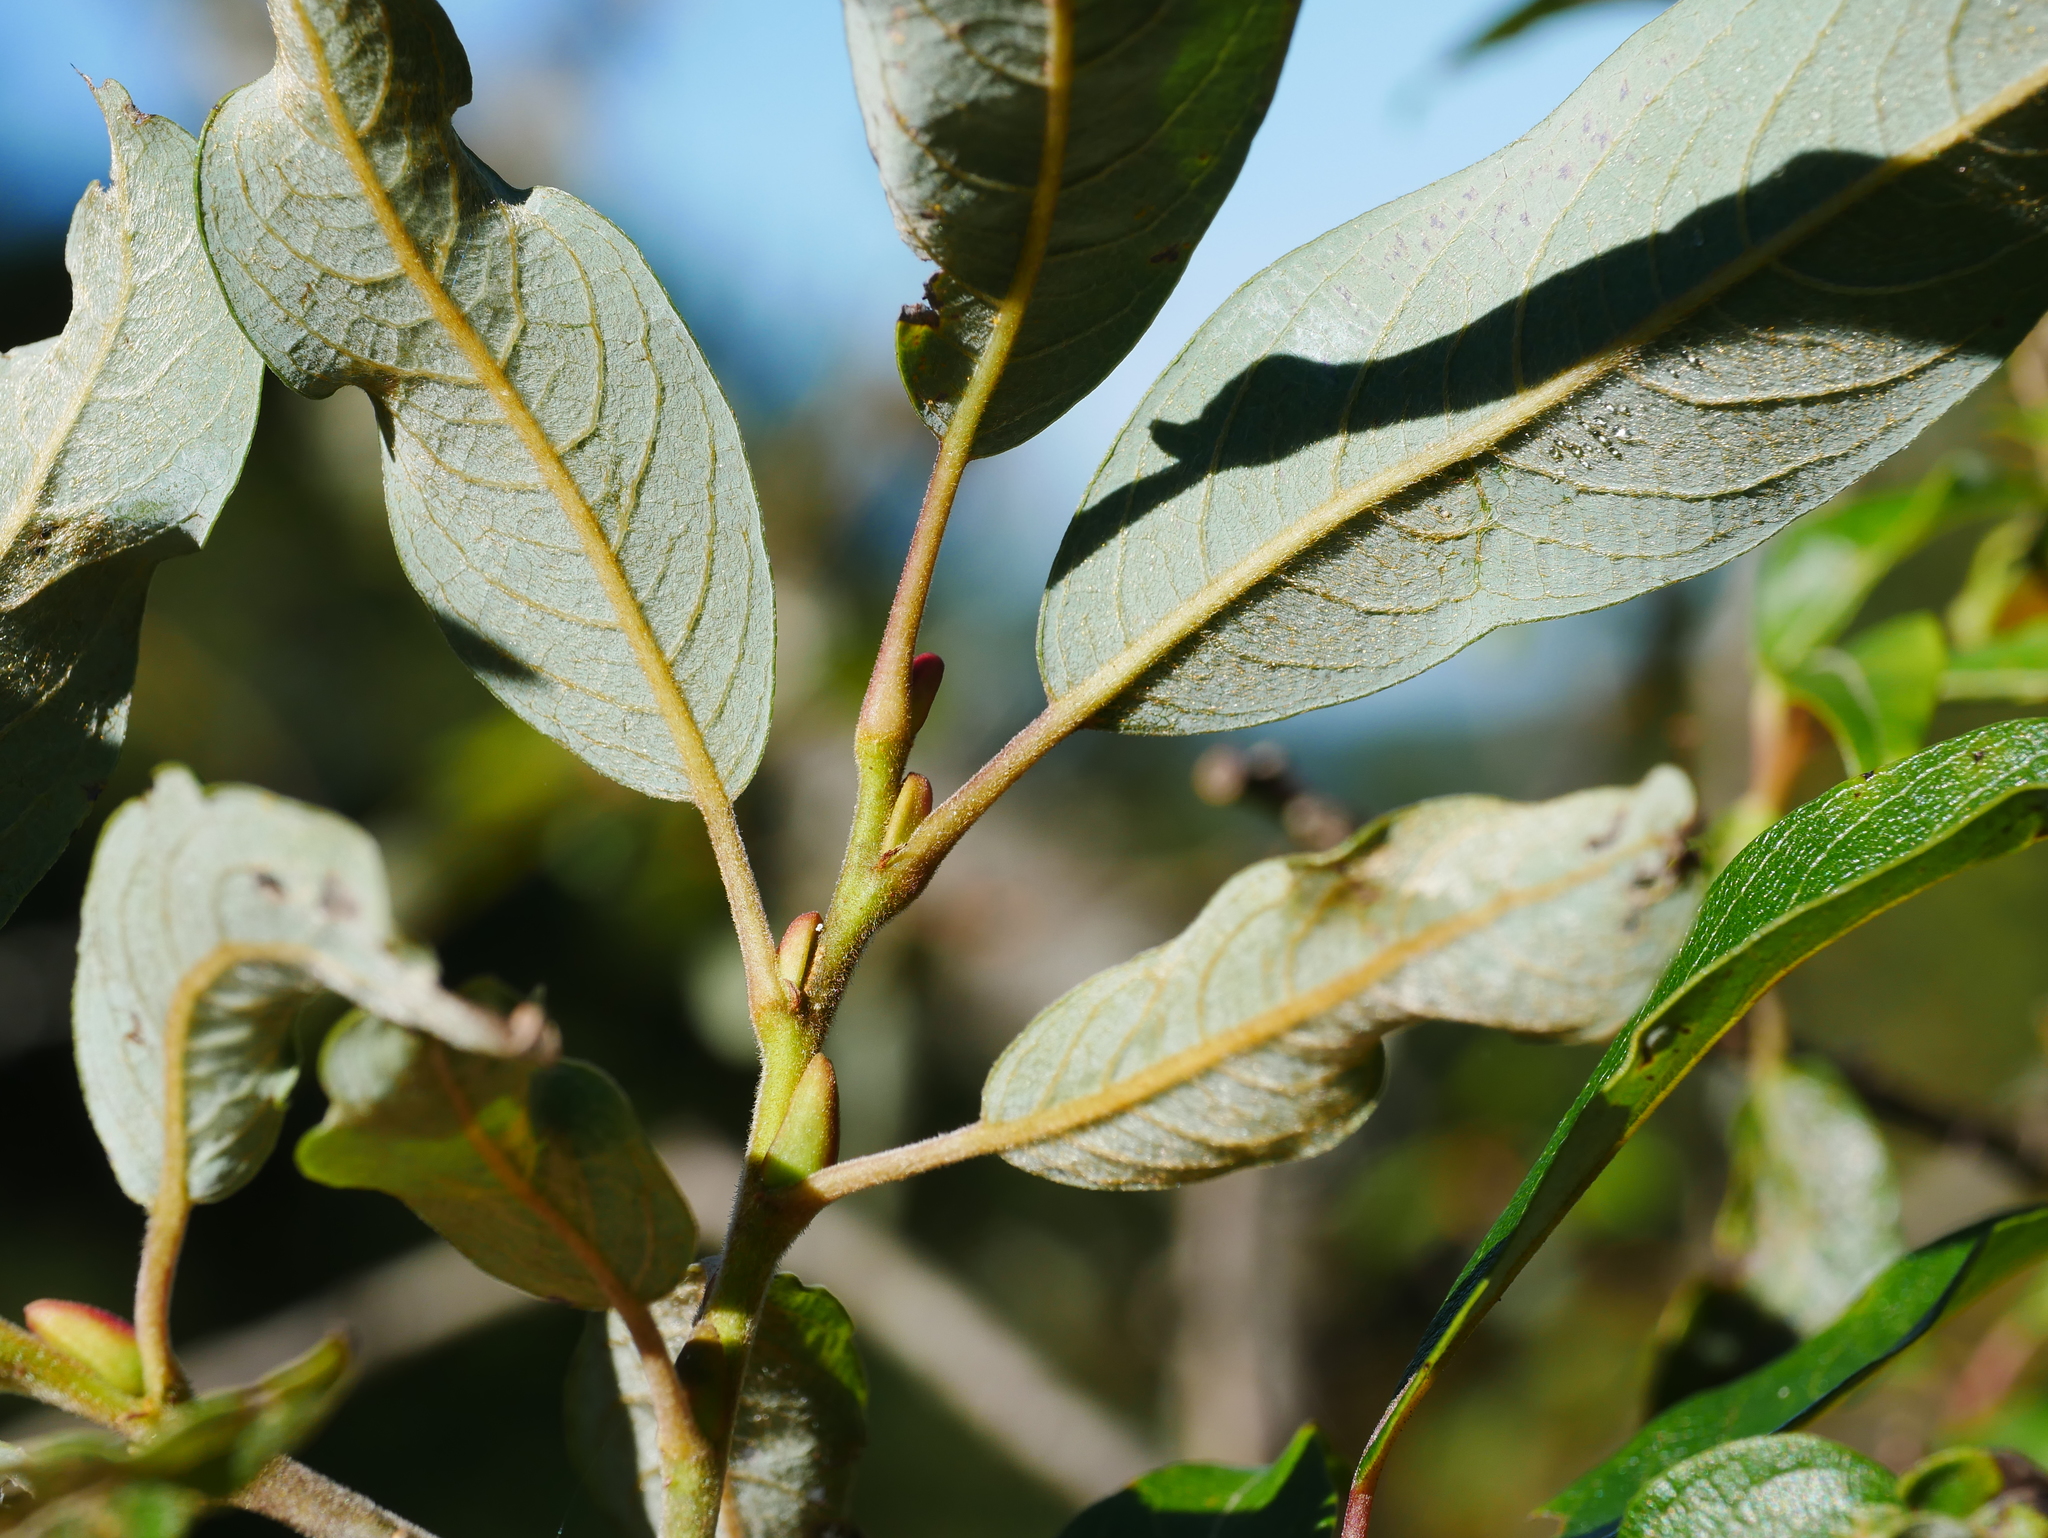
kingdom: Plantae
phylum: Tracheophyta
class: Magnoliopsida
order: Malpighiales
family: Salicaceae
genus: Salix
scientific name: Salix fulvopubescens
